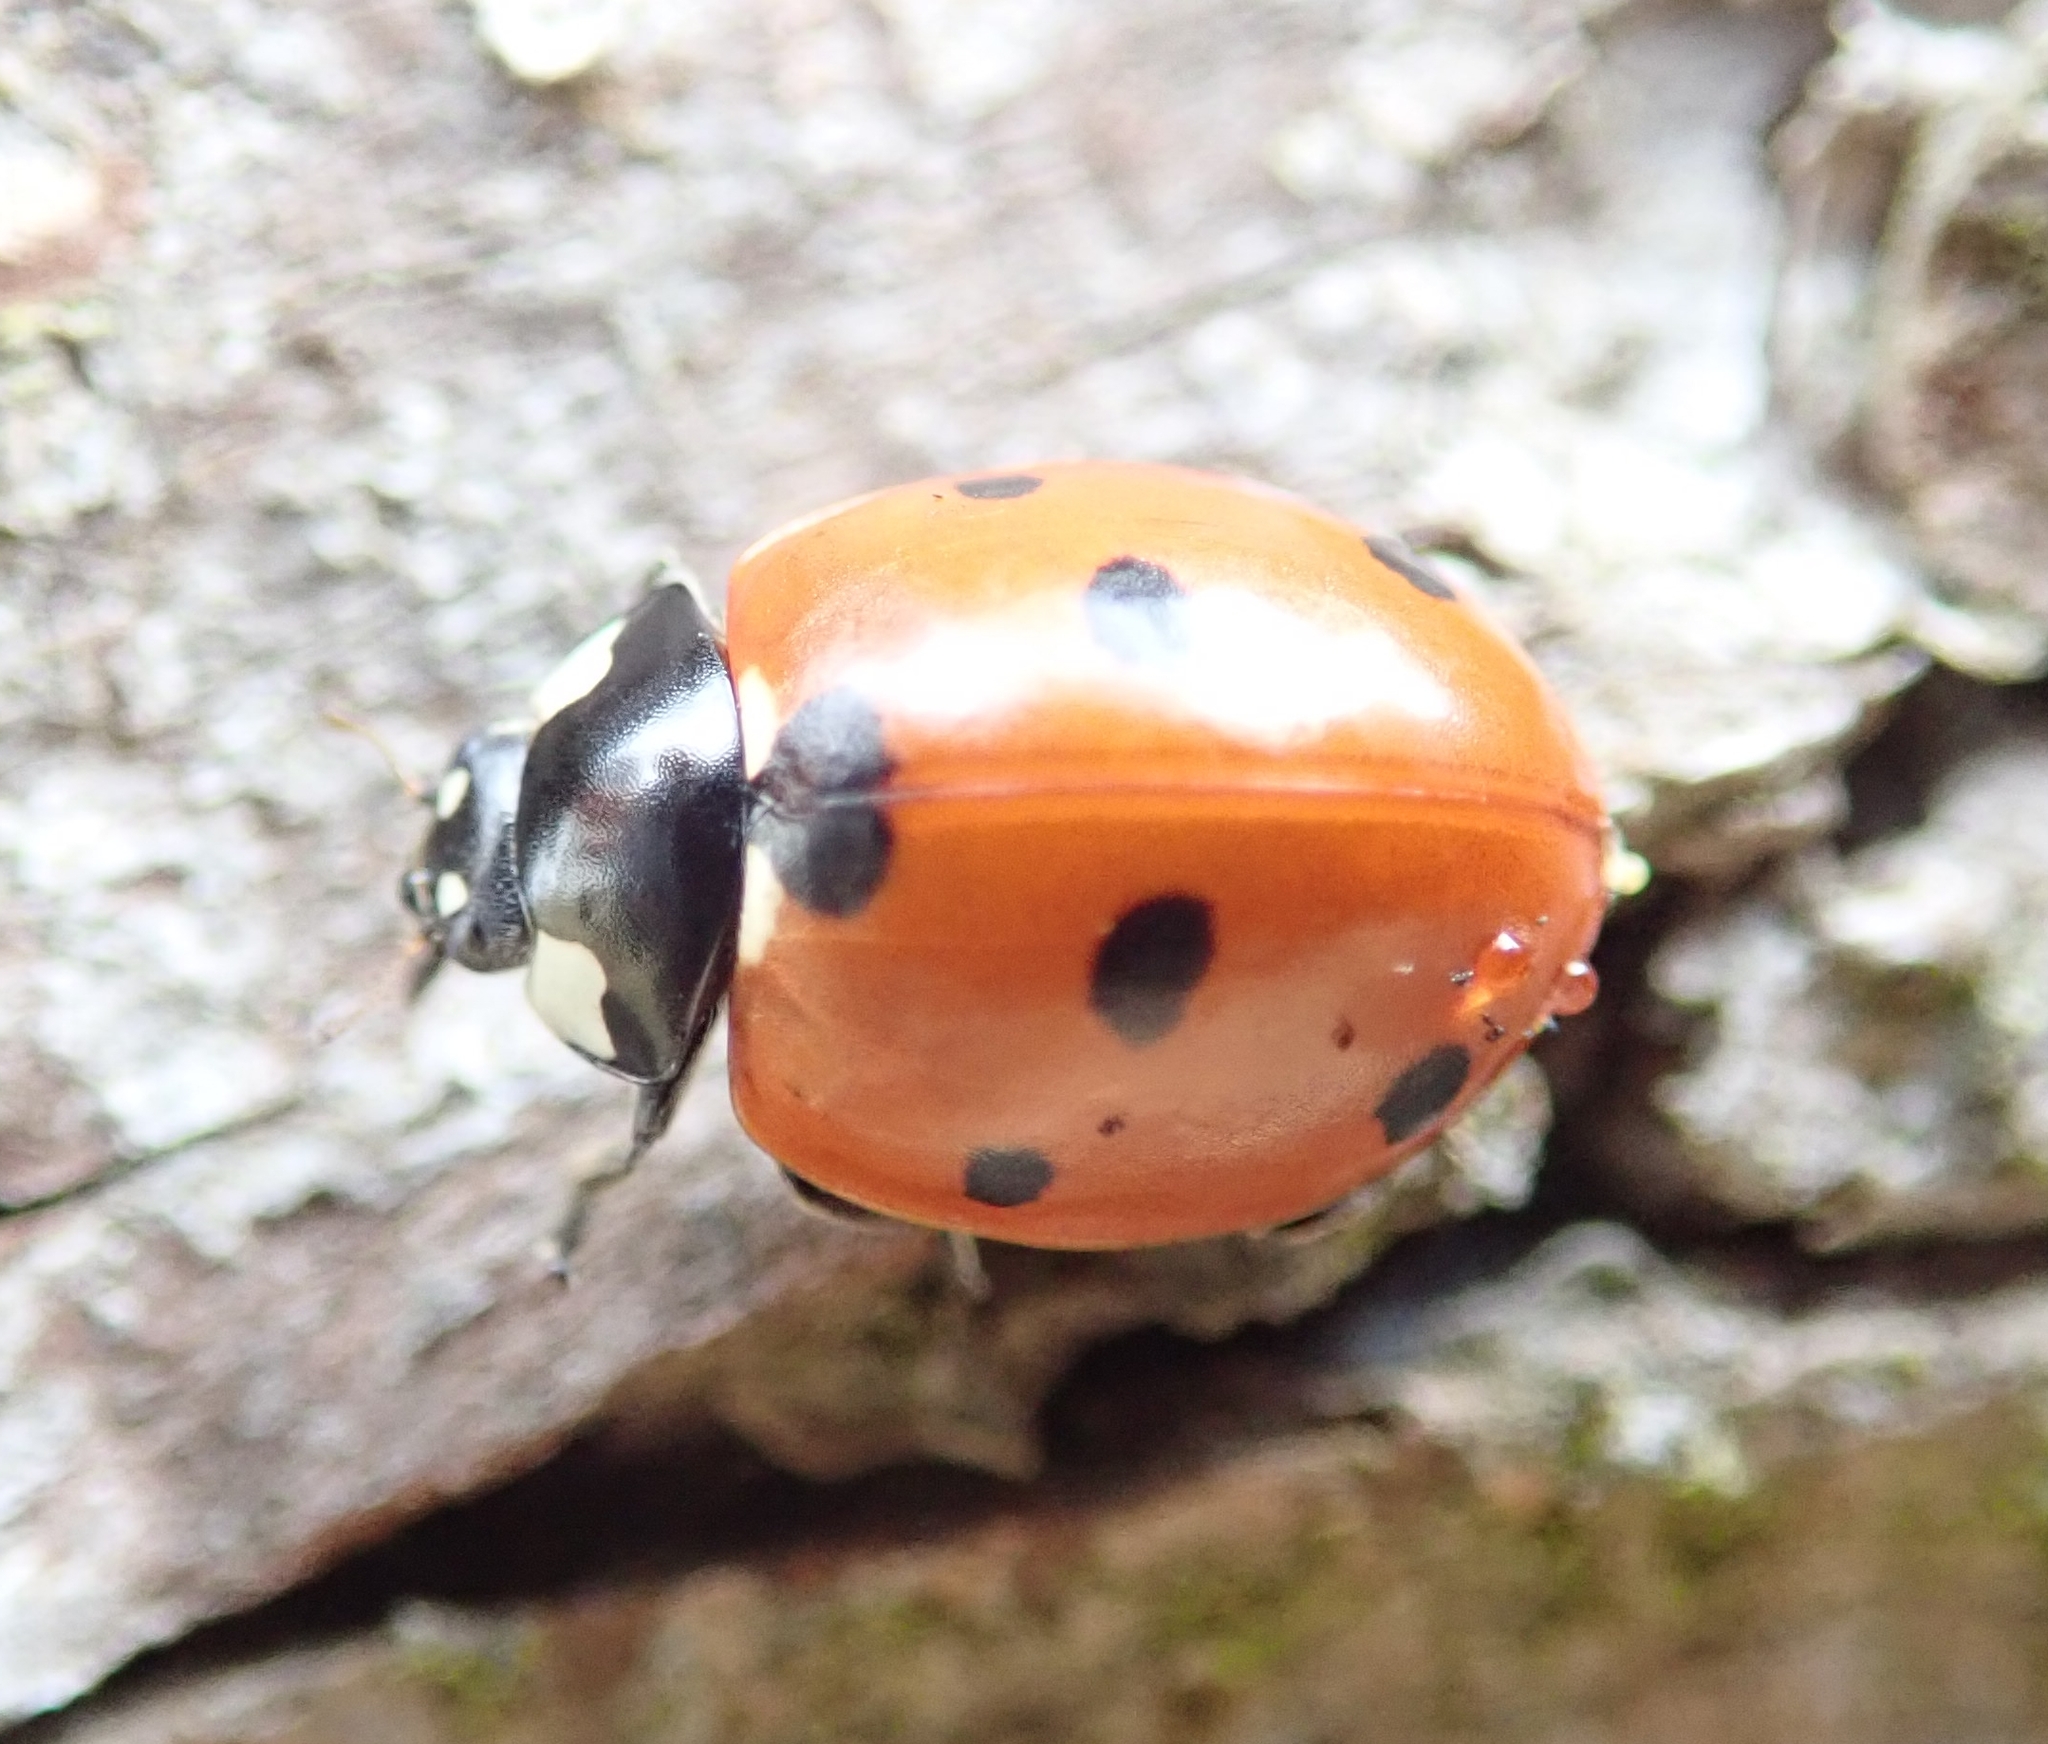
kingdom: Animalia
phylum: Arthropoda
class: Insecta
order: Coleoptera
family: Coccinellidae
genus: Coccinella
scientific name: Coccinella septempunctata
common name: Sevenspotted lady beetle
